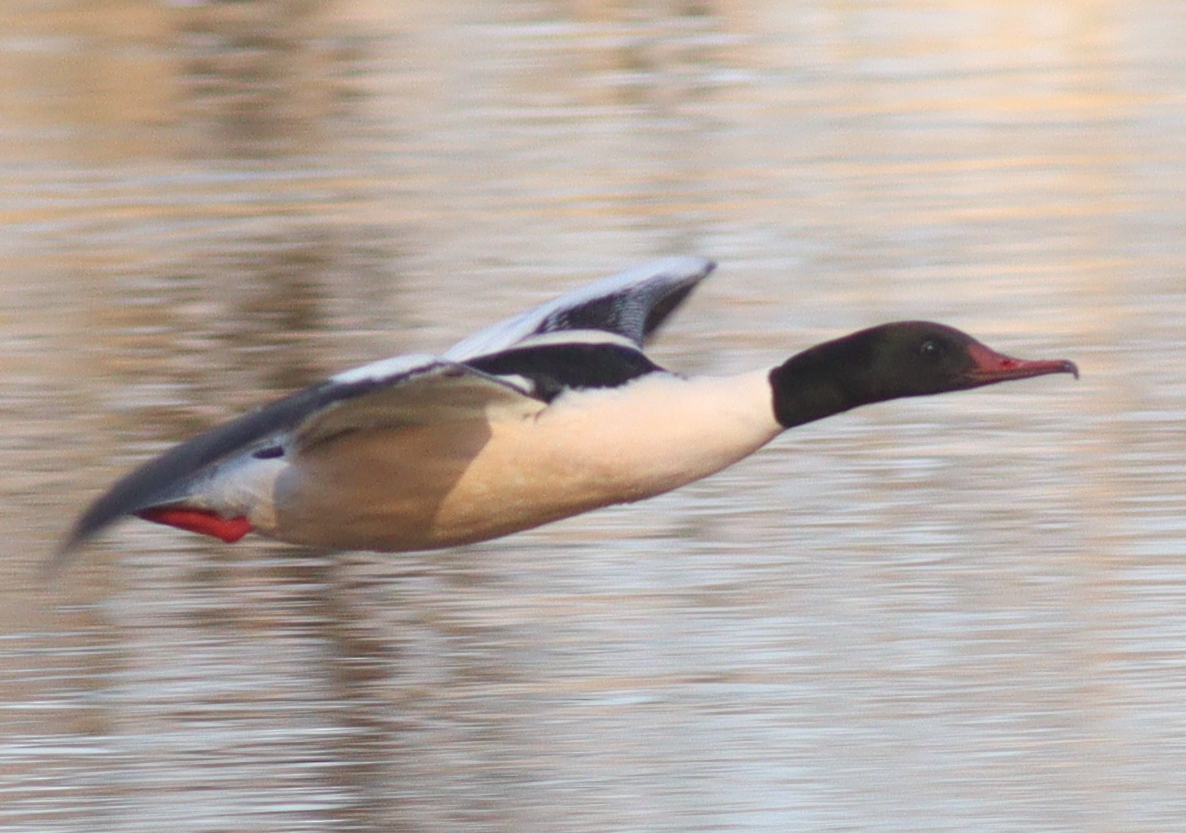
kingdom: Animalia
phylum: Chordata
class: Aves
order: Anseriformes
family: Anatidae
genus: Mergus
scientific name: Mergus merganser
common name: Common merganser
